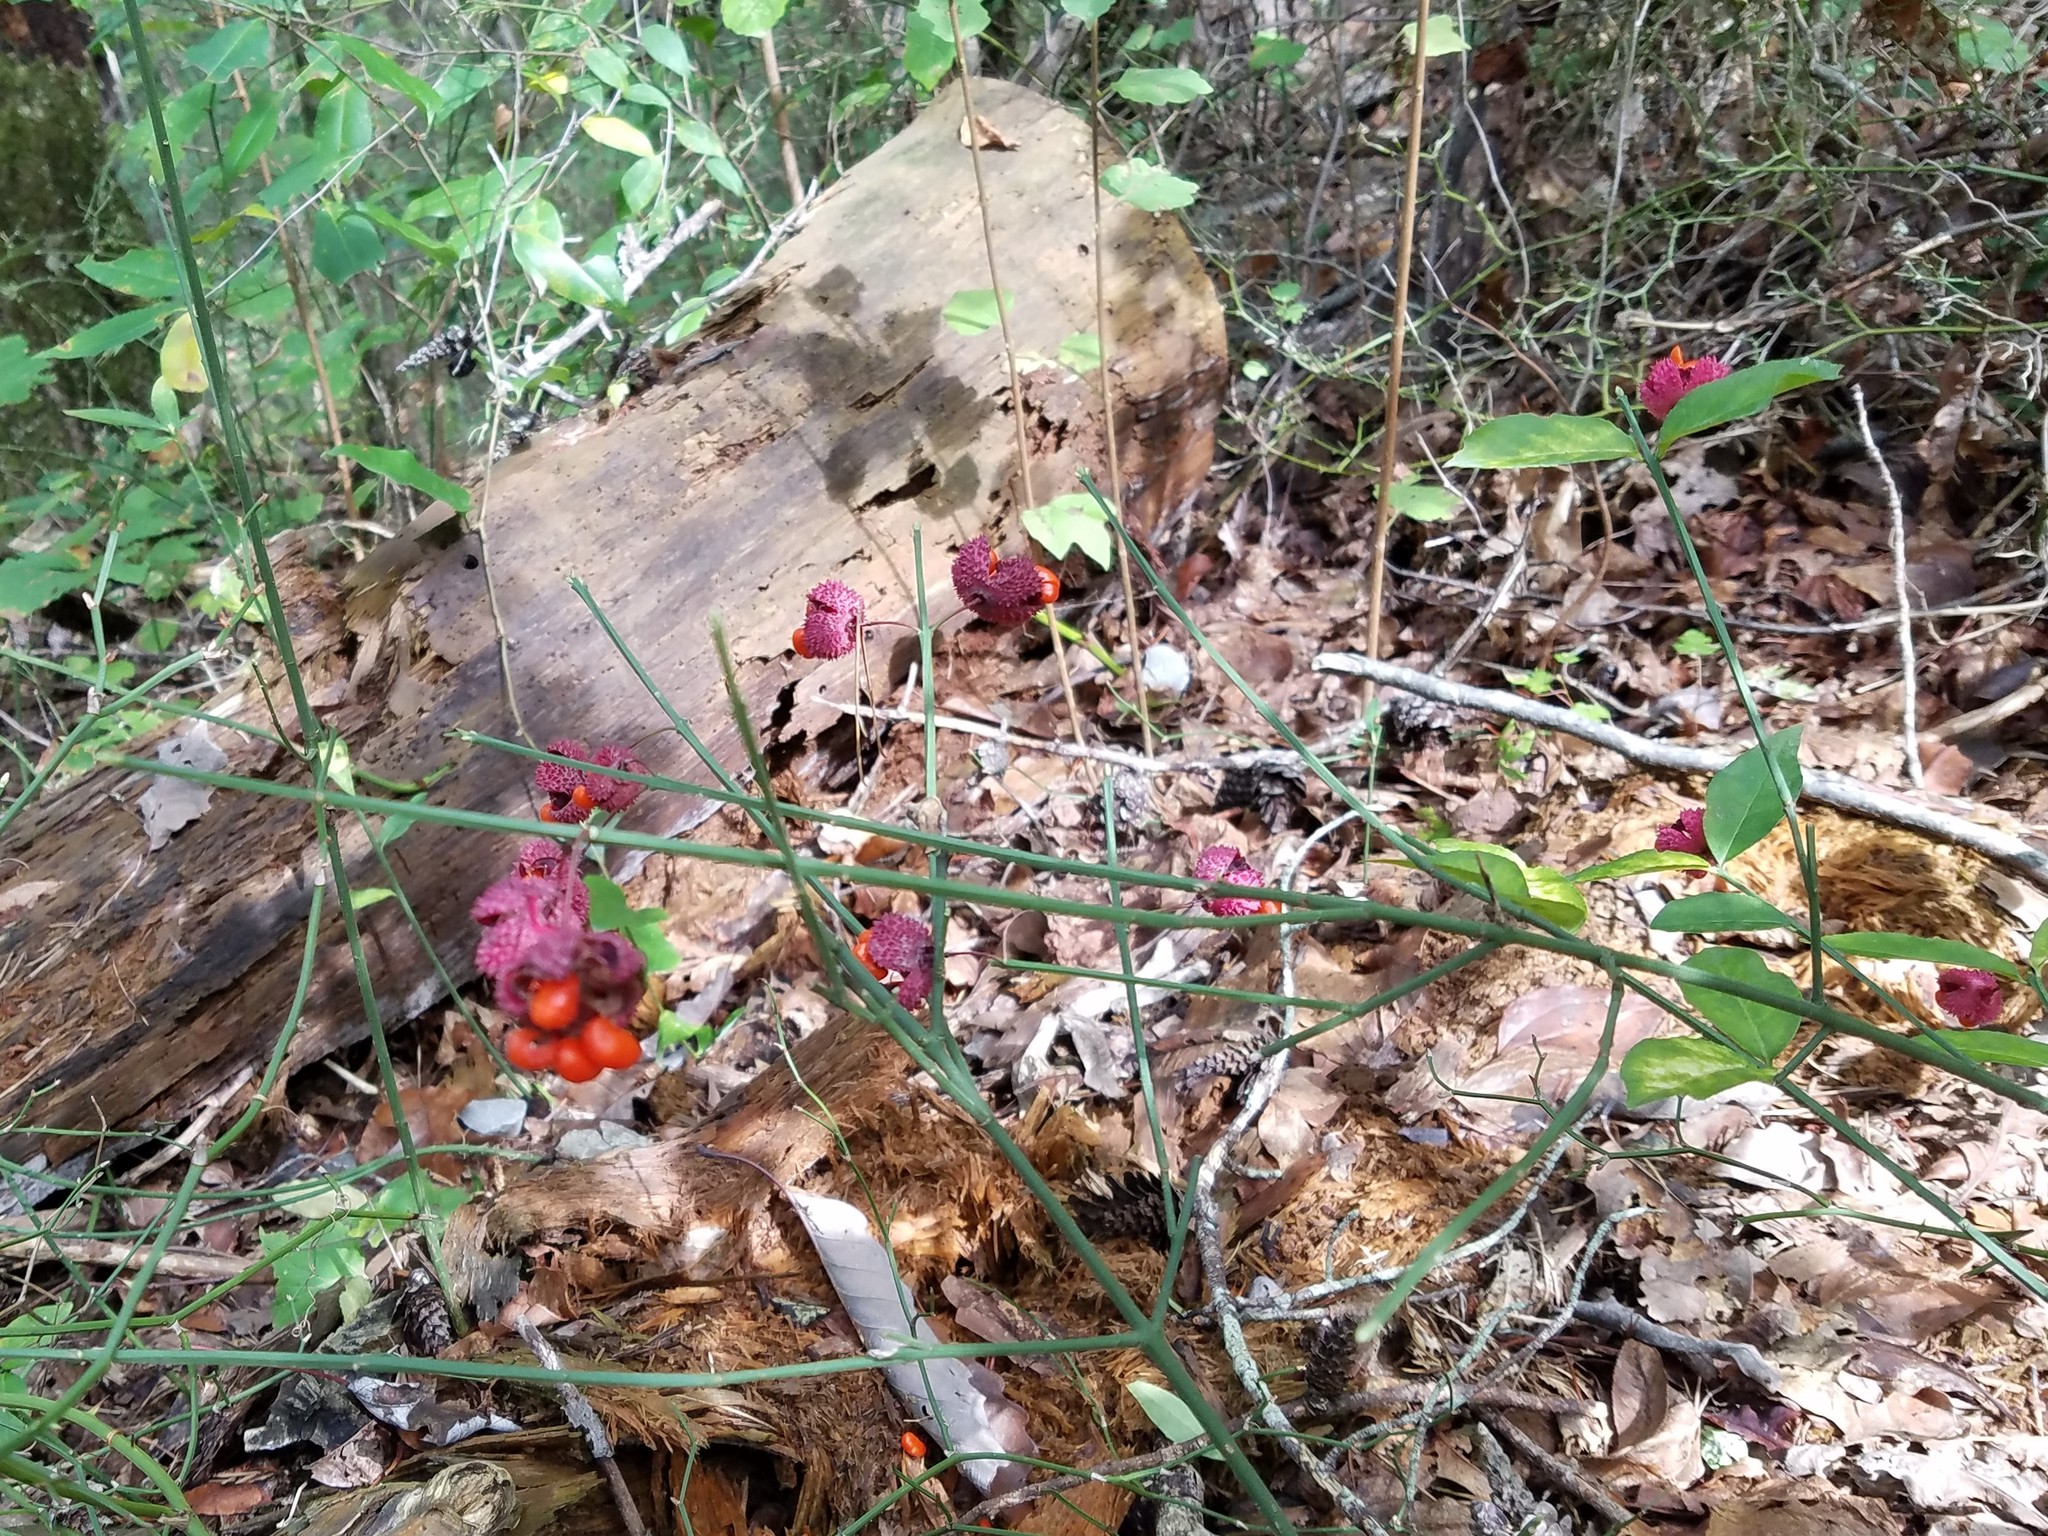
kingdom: Plantae
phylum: Tracheophyta
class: Magnoliopsida
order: Celastrales
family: Celastraceae
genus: Euonymus
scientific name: Euonymus americanus
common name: Bursting-heart
